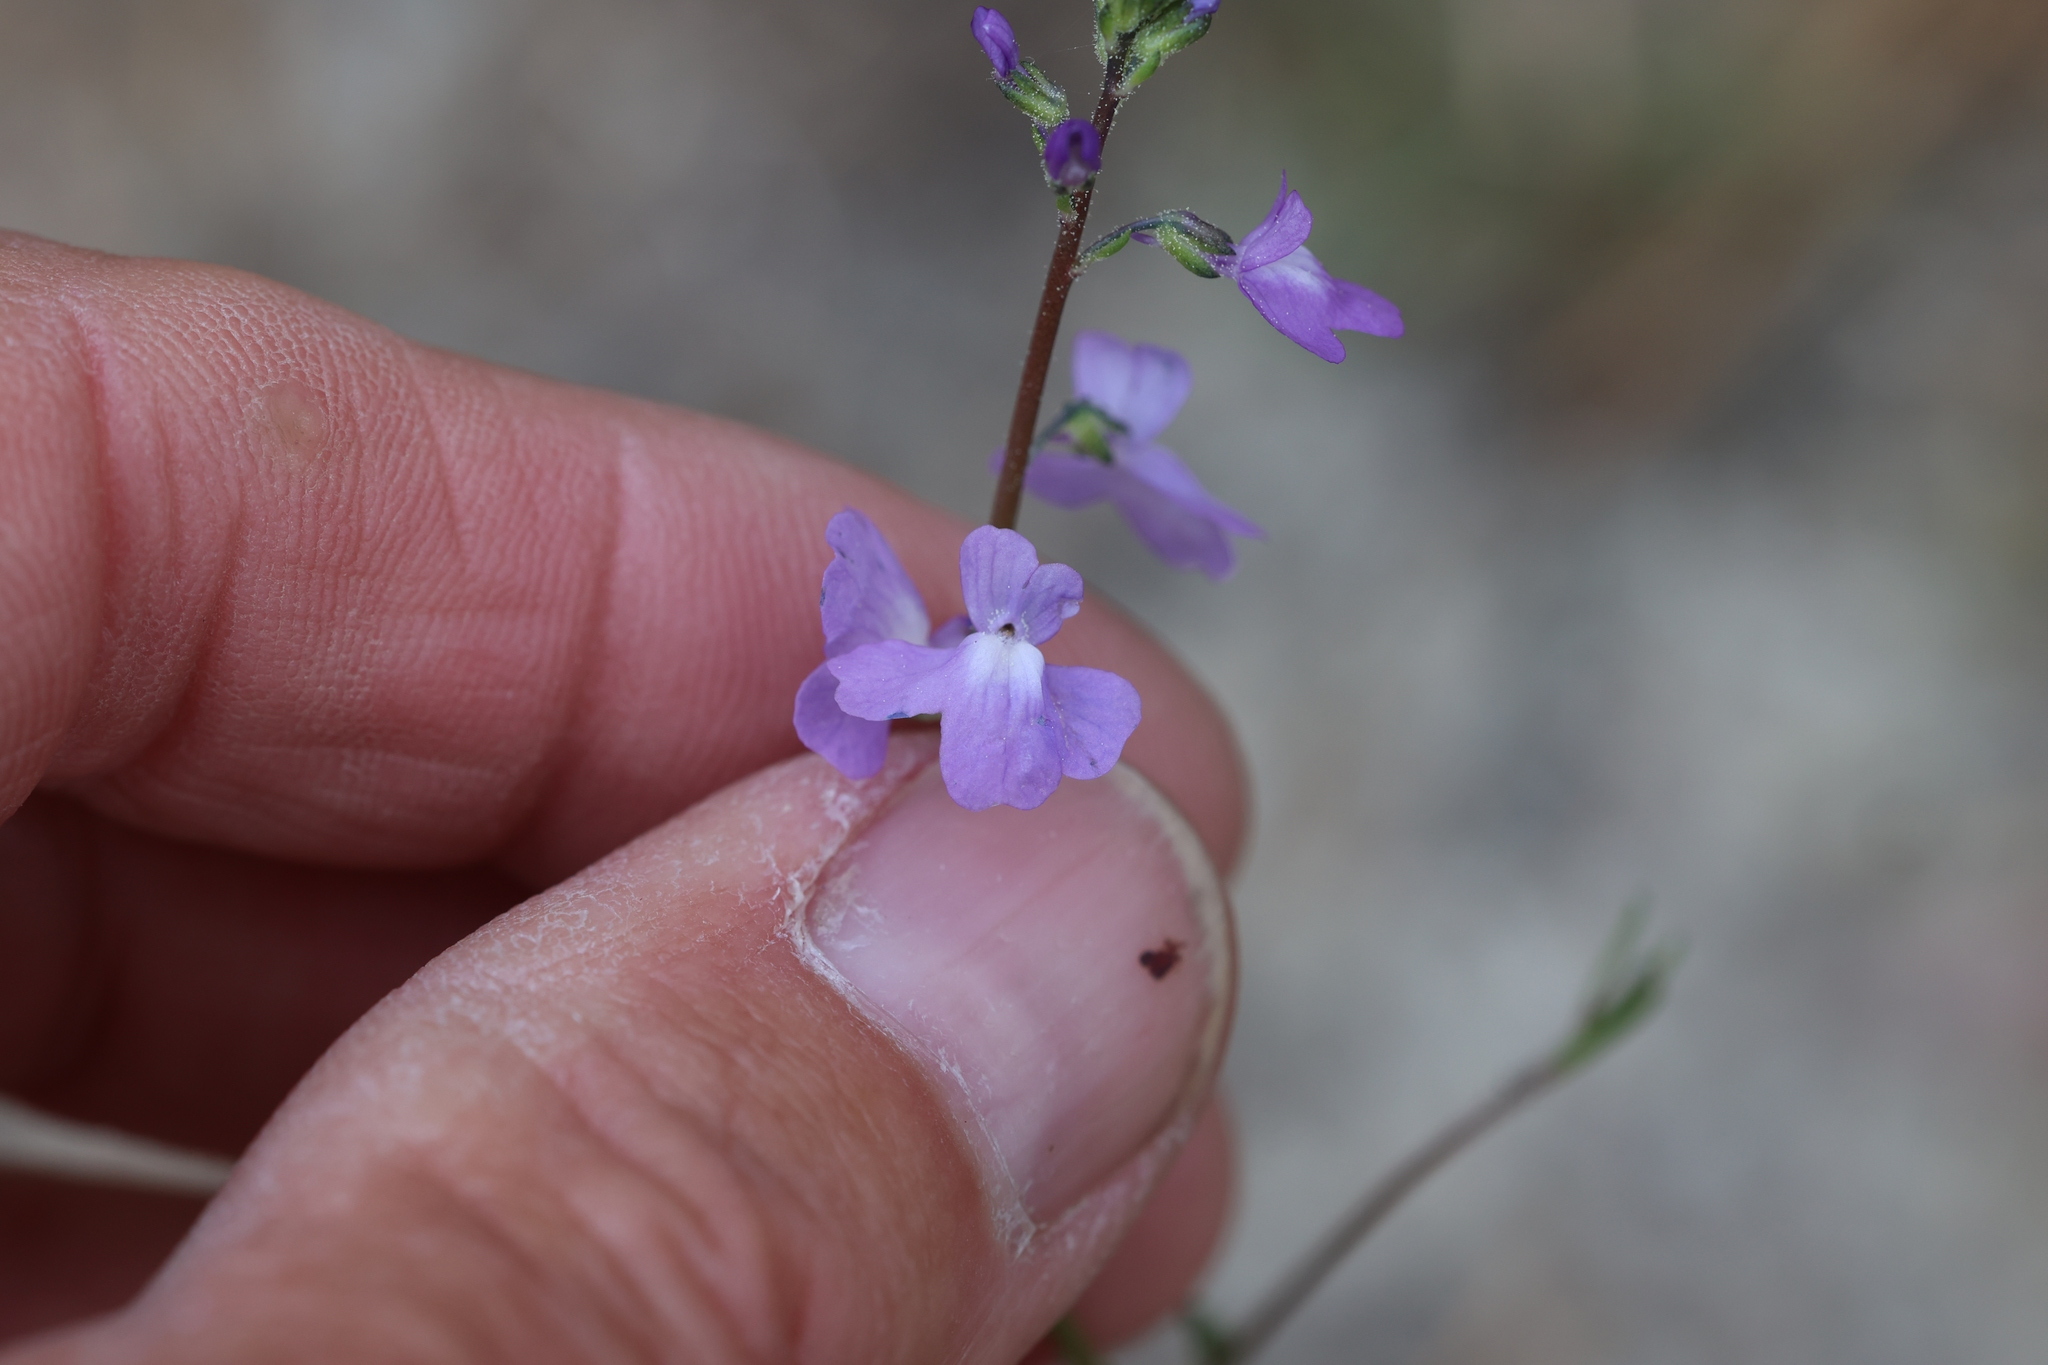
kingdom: Plantae
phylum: Tracheophyta
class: Magnoliopsida
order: Lamiales
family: Plantaginaceae
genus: Nuttallanthus
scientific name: Nuttallanthus canadensis
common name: Blue toadflax
